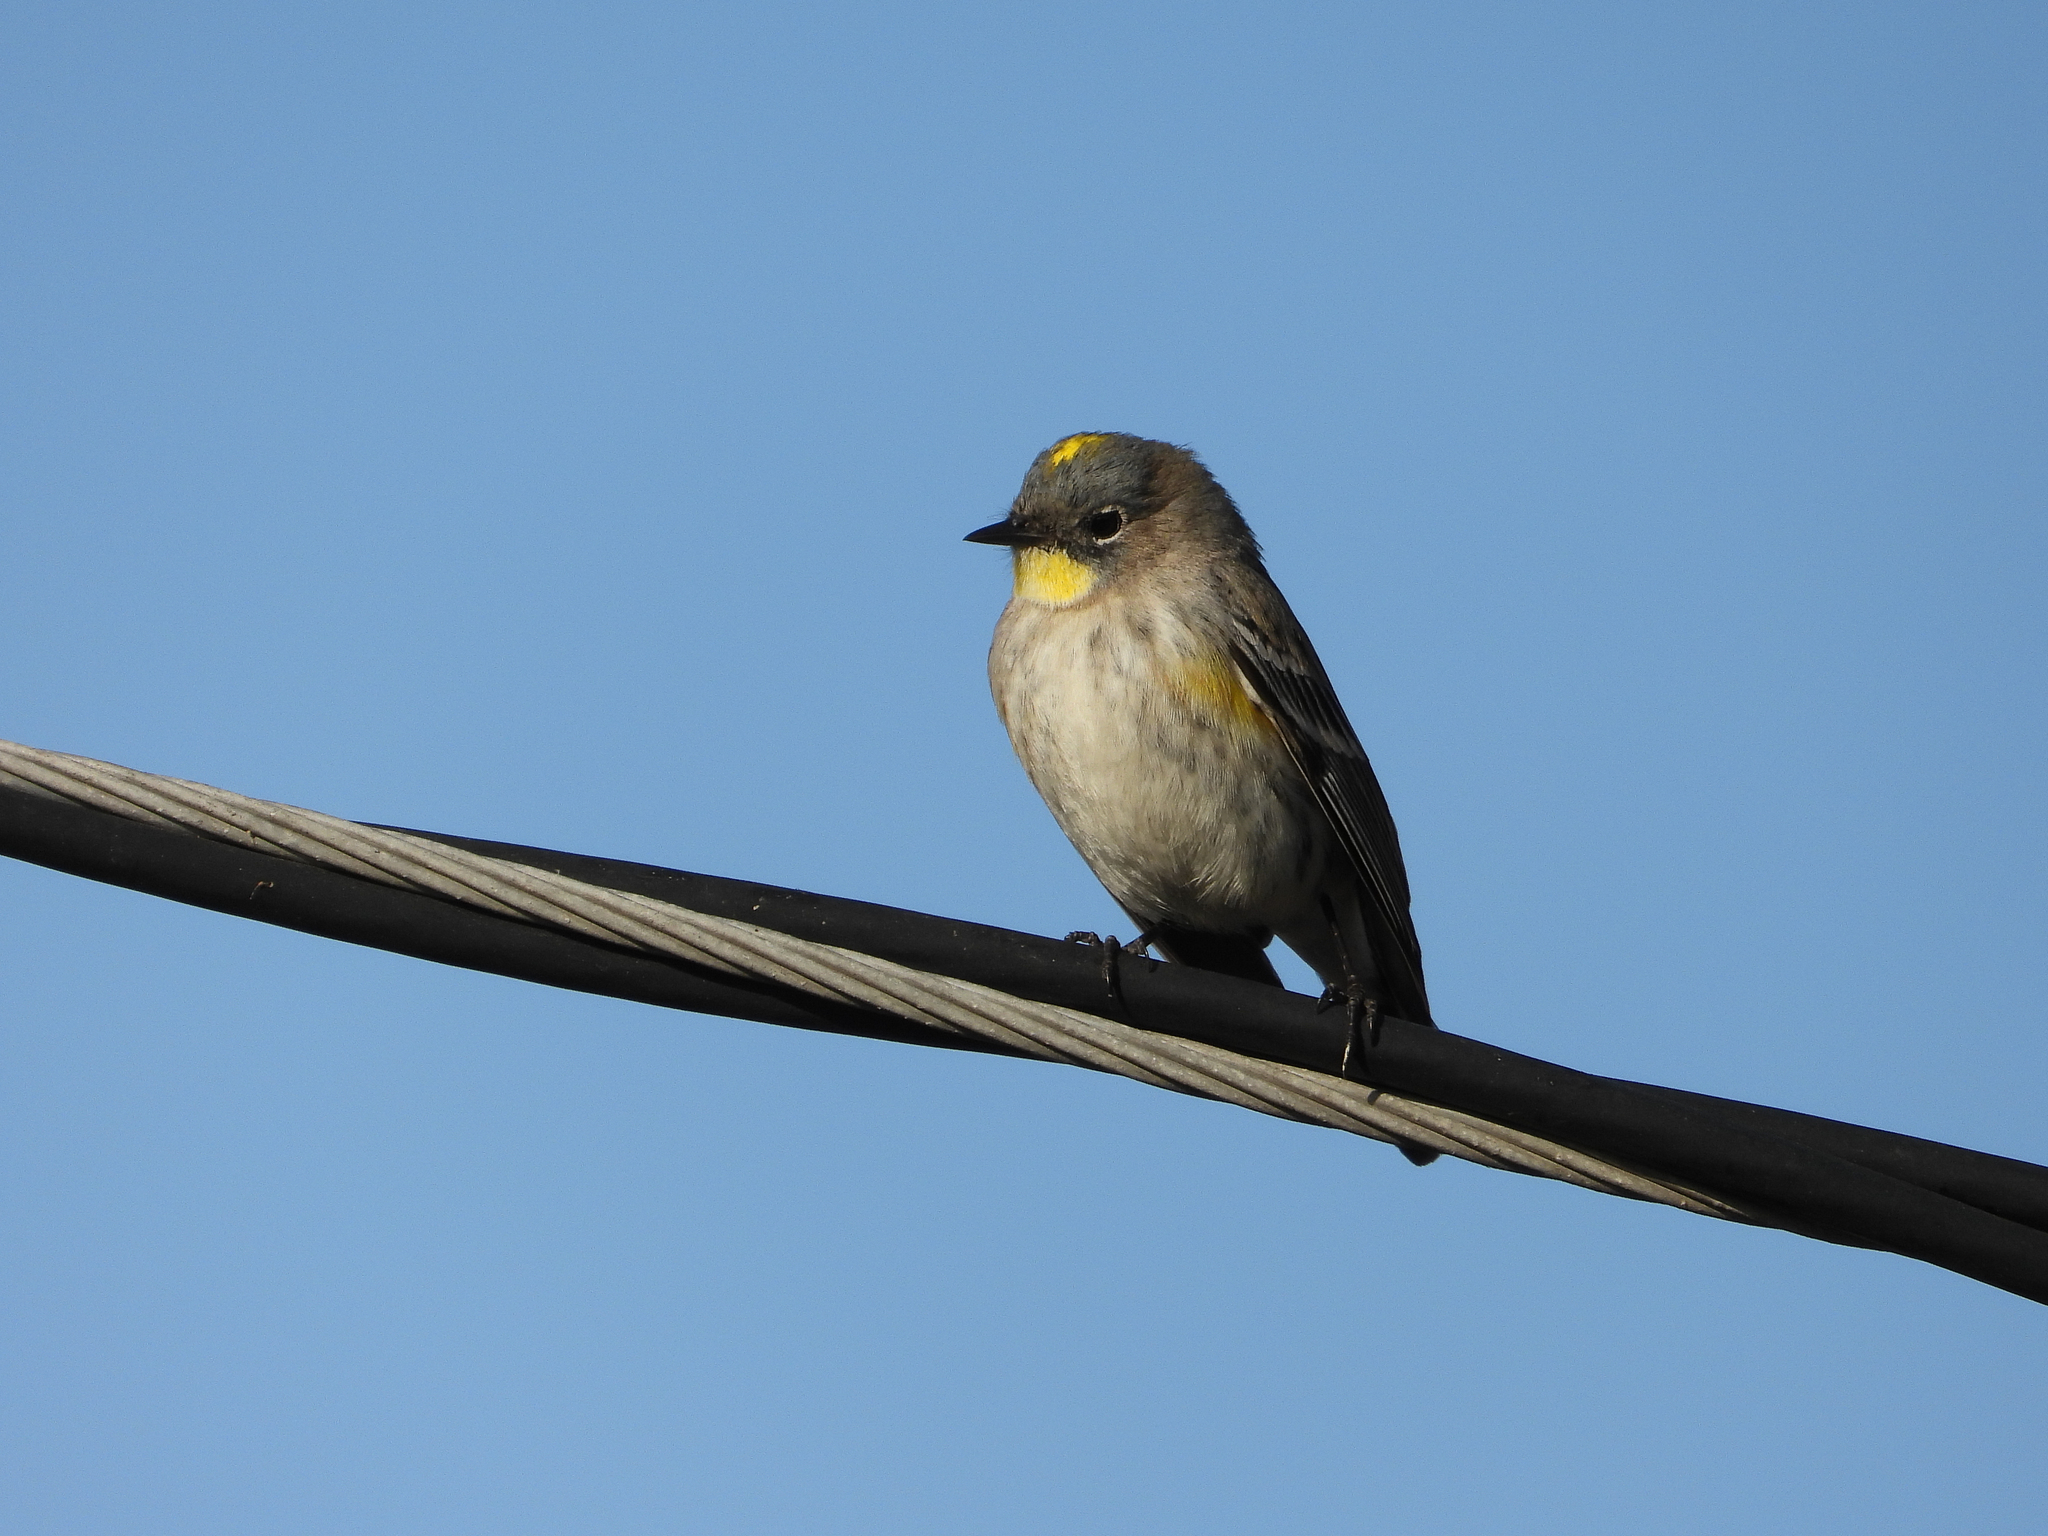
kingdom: Animalia
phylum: Chordata
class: Aves
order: Passeriformes
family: Parulidae
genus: Setophaga
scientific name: Setophaga coronata
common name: Myrtle warbler
